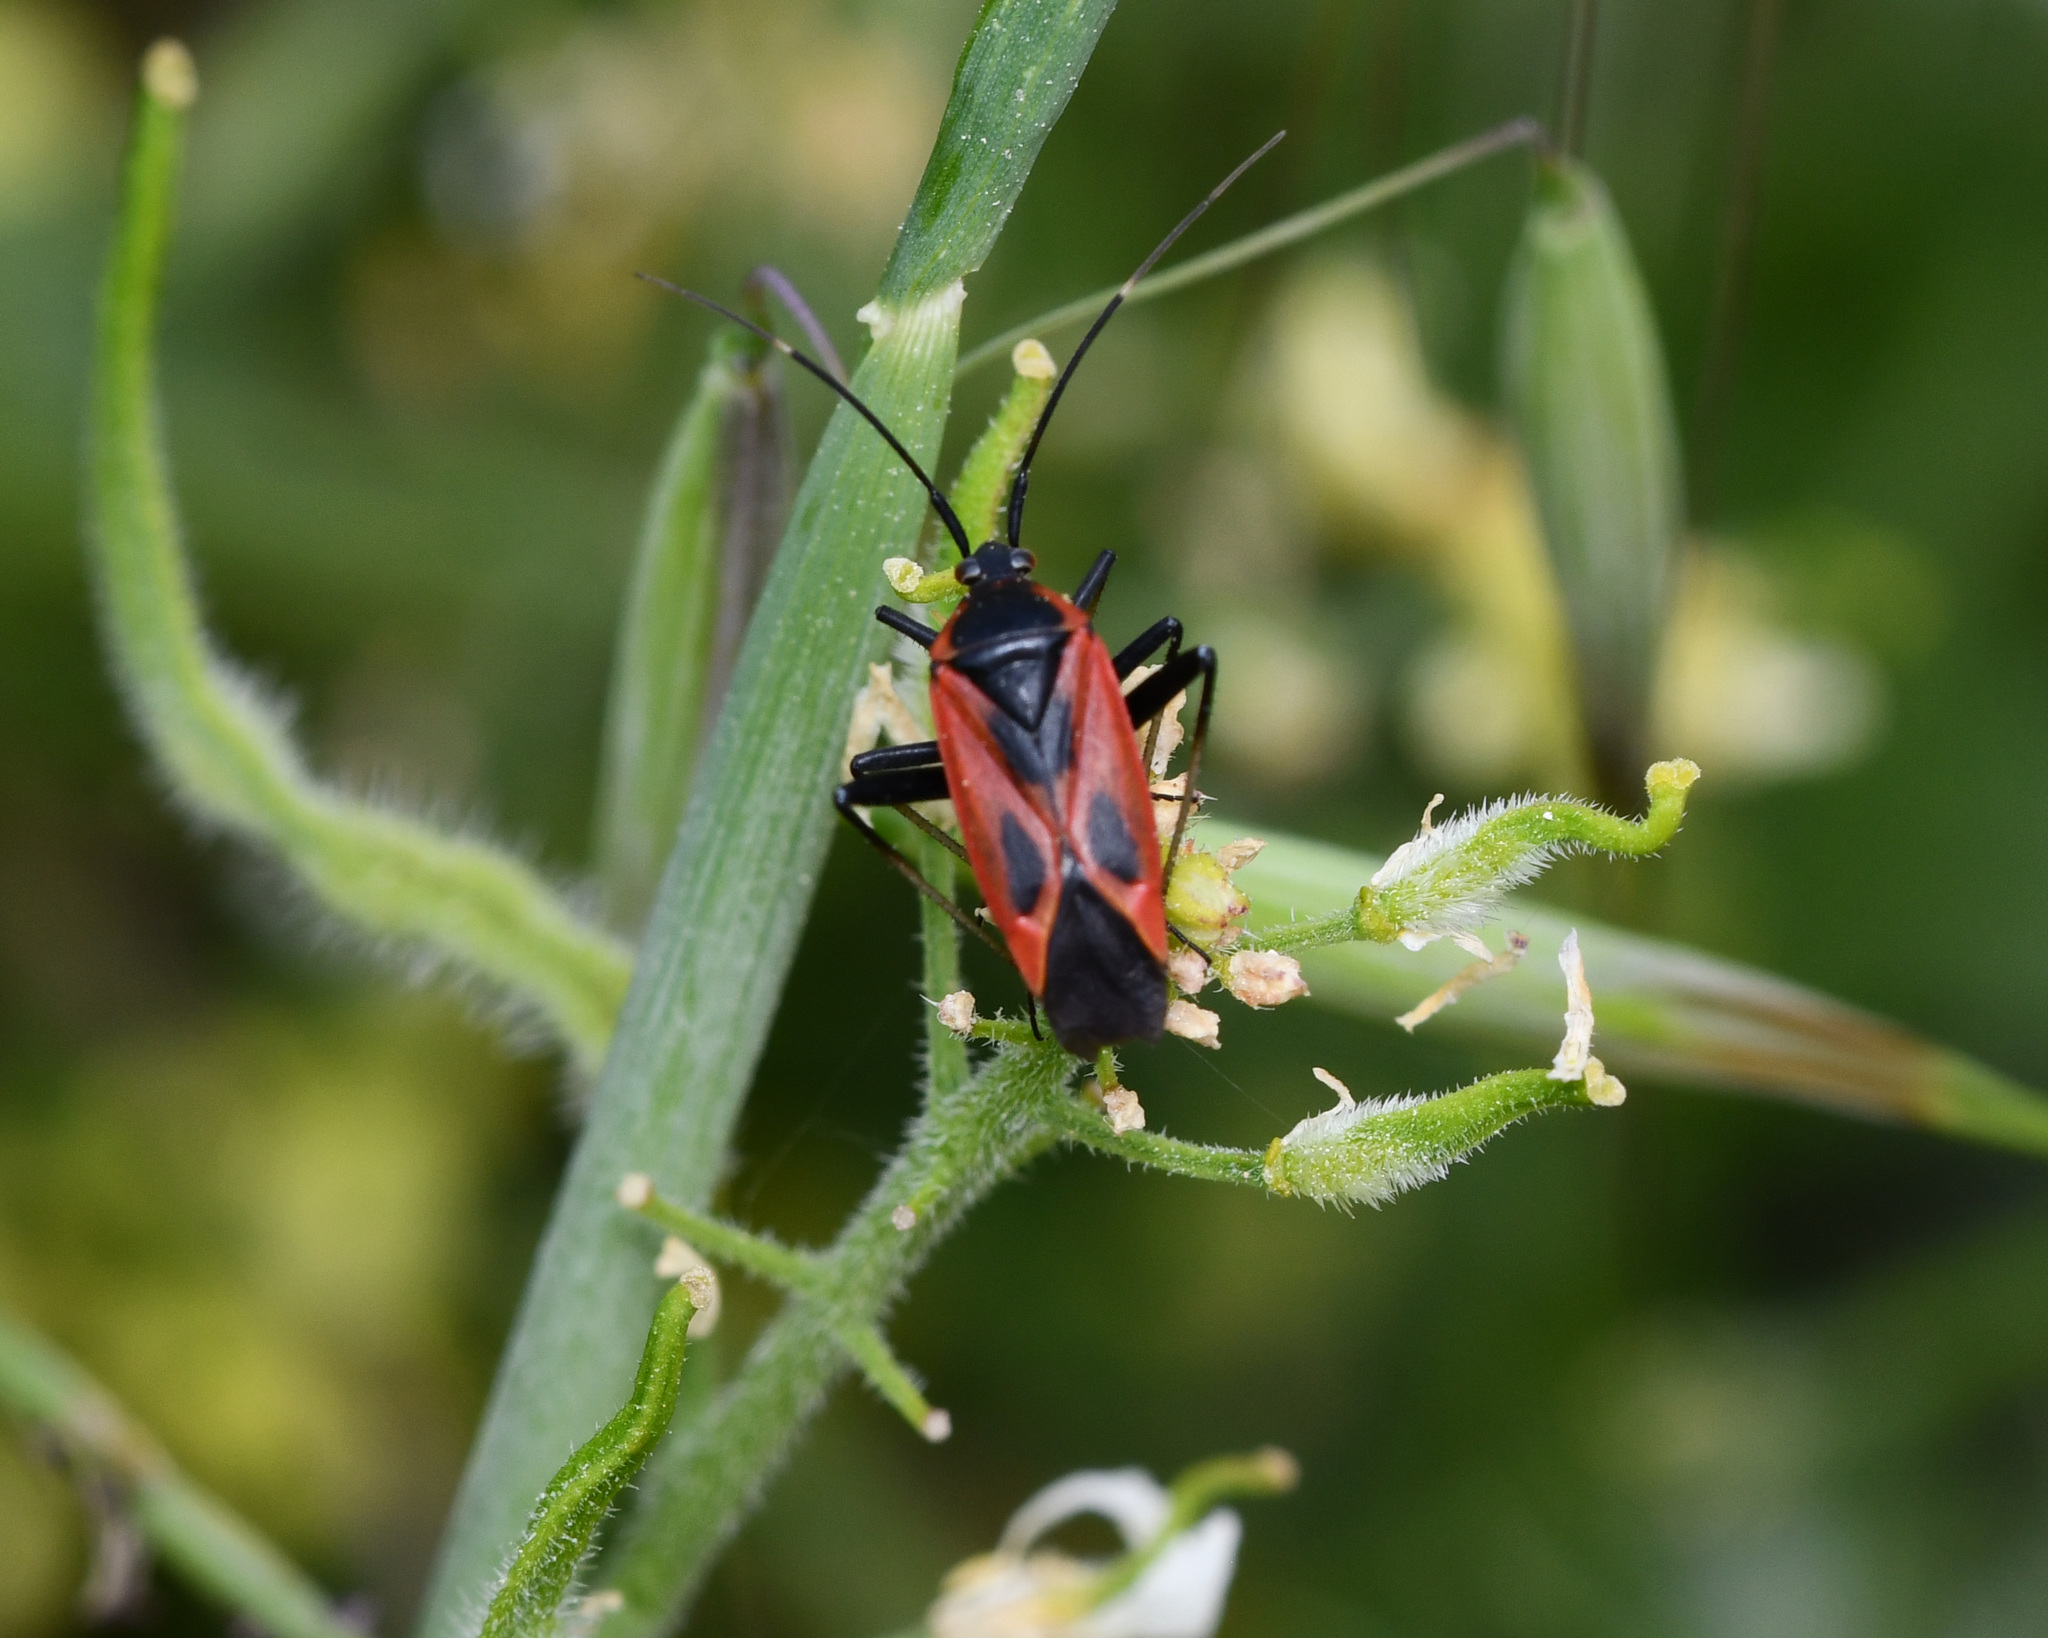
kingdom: Animalia
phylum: Arthropoda
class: Insecta
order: Hemiptera
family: Miridae
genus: Calocoris
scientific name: Calocoris nemoralis
